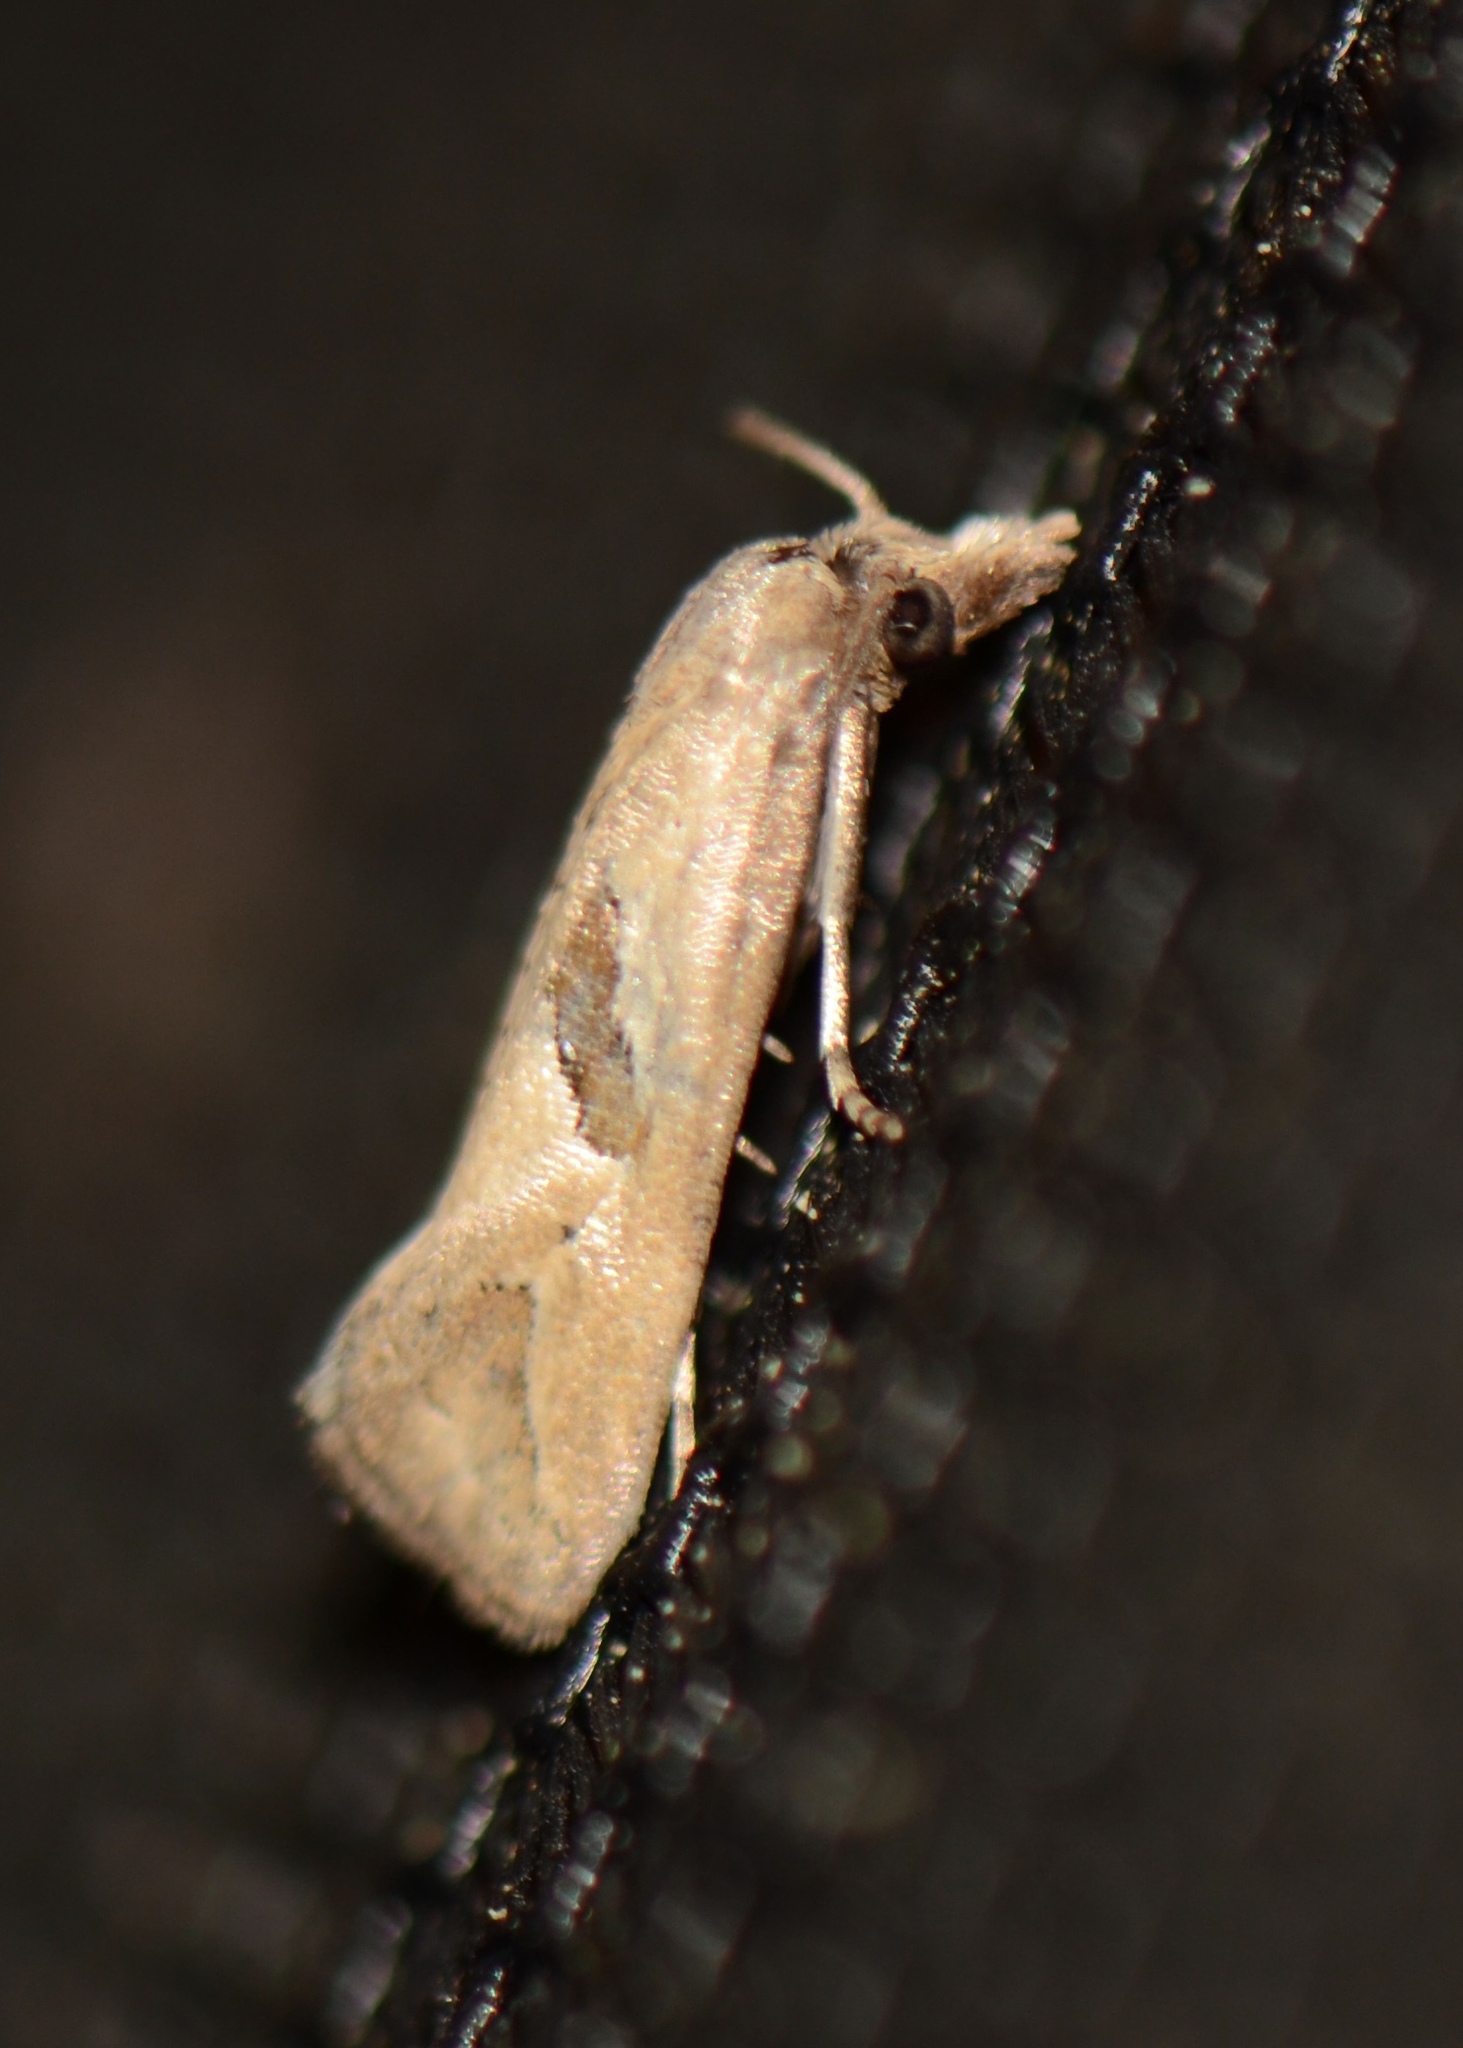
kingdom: Animalia
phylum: Arthropoda
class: Insecta
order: Lepidoptera
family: Tortricidae
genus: Eugnosta
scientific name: Eugnosta bimaculana
